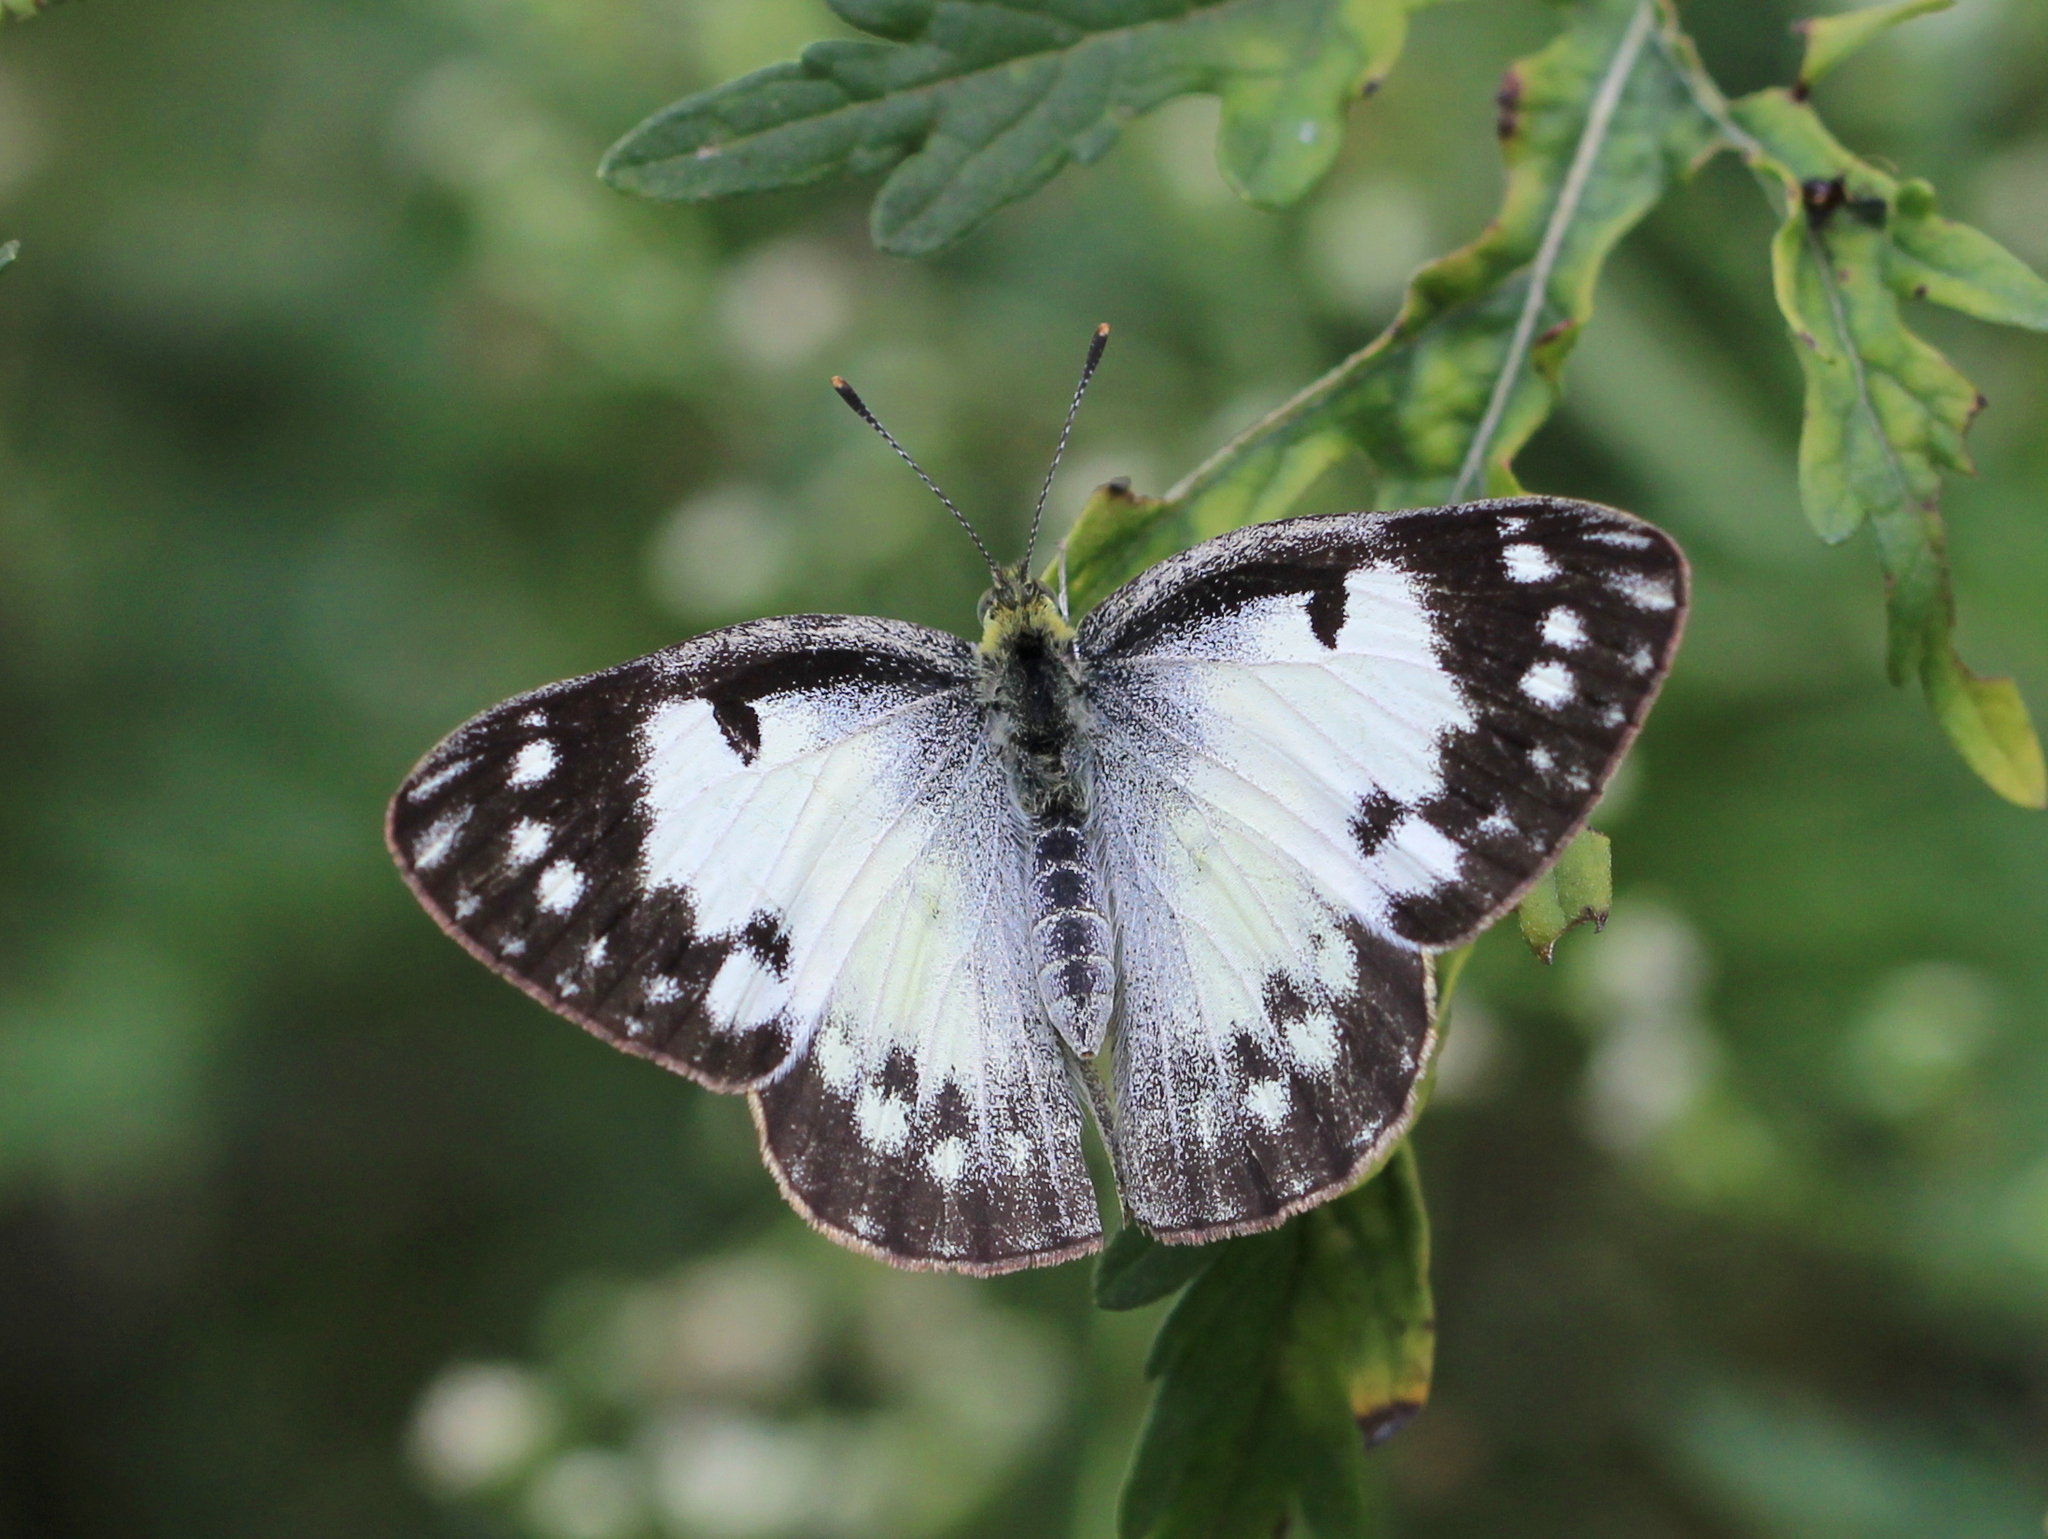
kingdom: Animalia
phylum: Arthropoda
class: Insecta
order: Lepidoptera
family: Pieridae
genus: Colotis
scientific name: Colotis amata
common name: Small salmon arab
